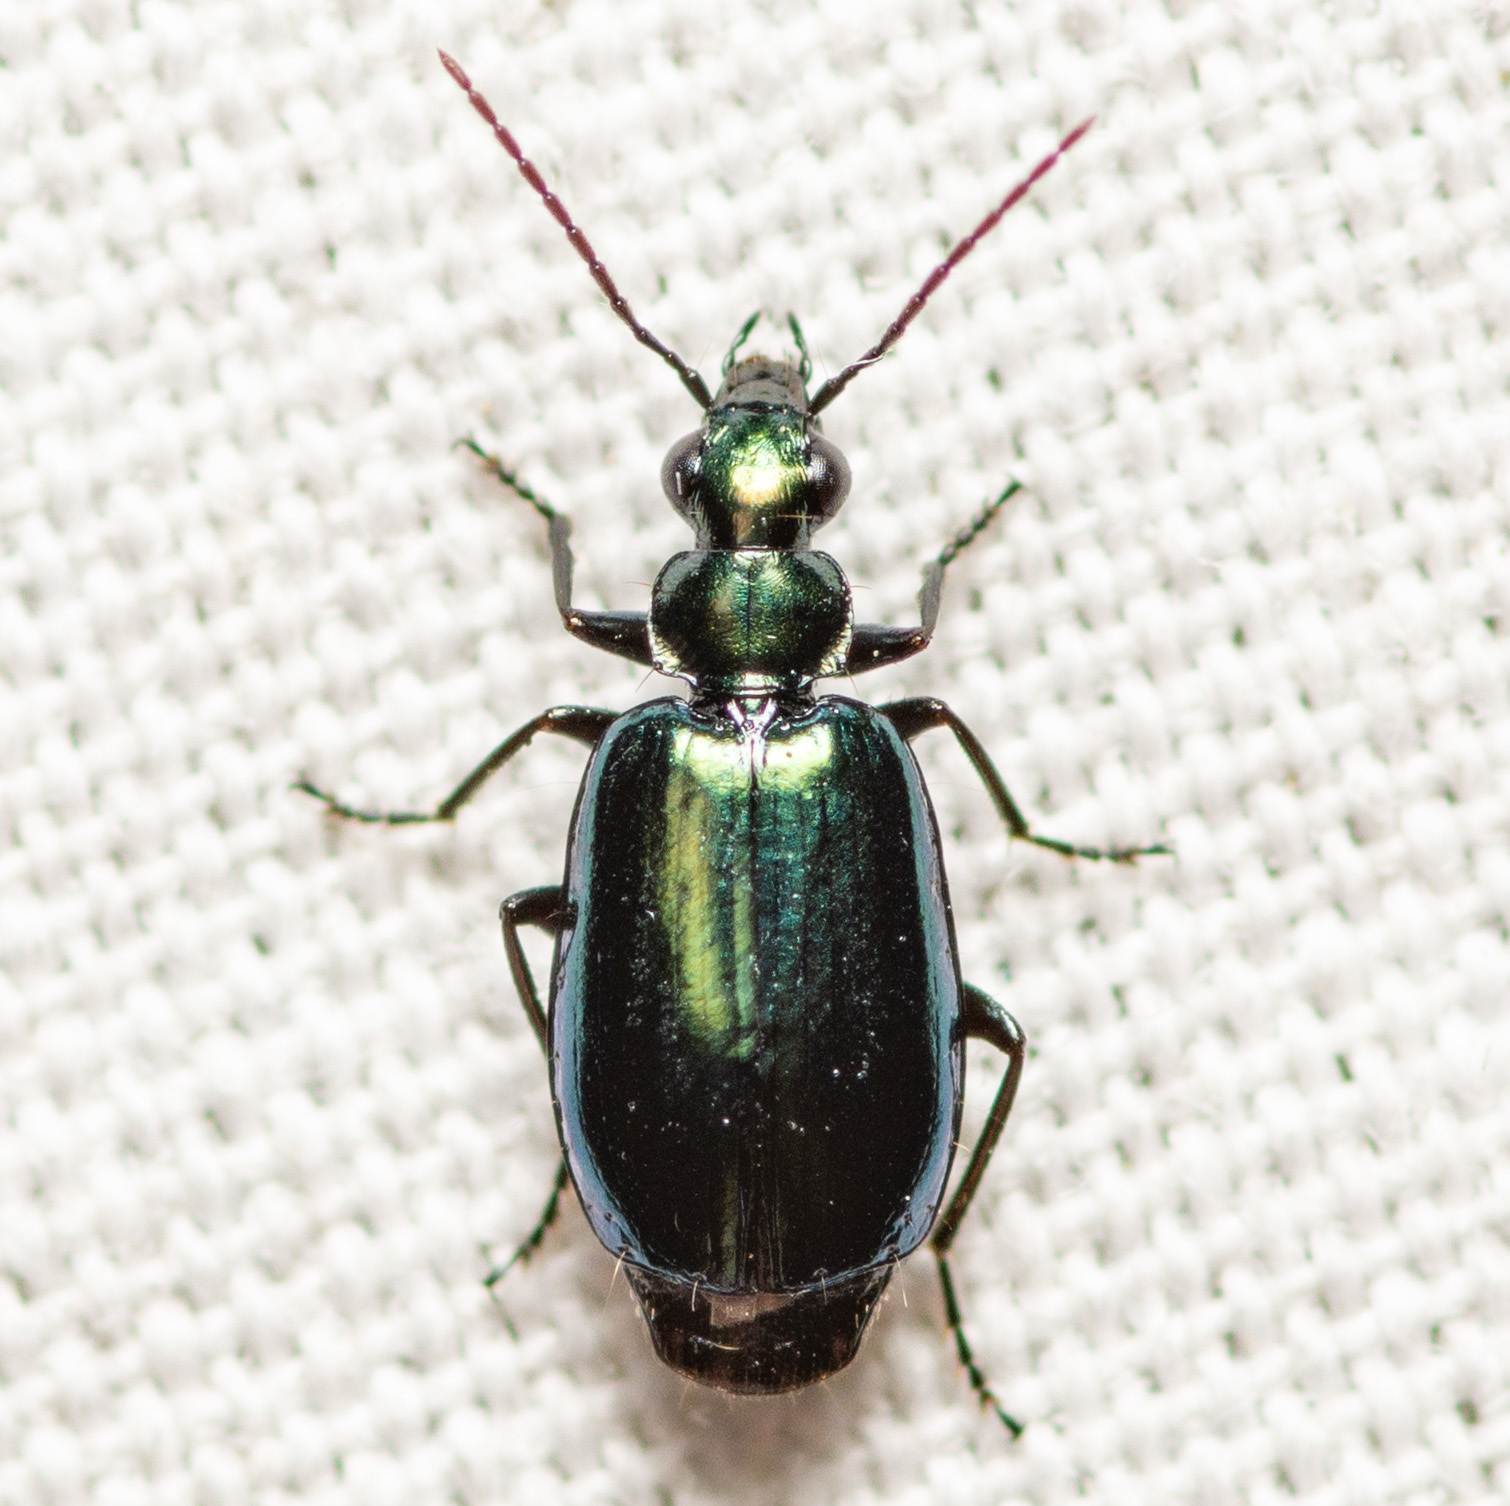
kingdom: Animalia
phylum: Arthropoda
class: Insecta
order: Coleoptera
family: Carabidae
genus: Lebia
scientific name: Lebia viridis
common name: Flower lebia beetle
